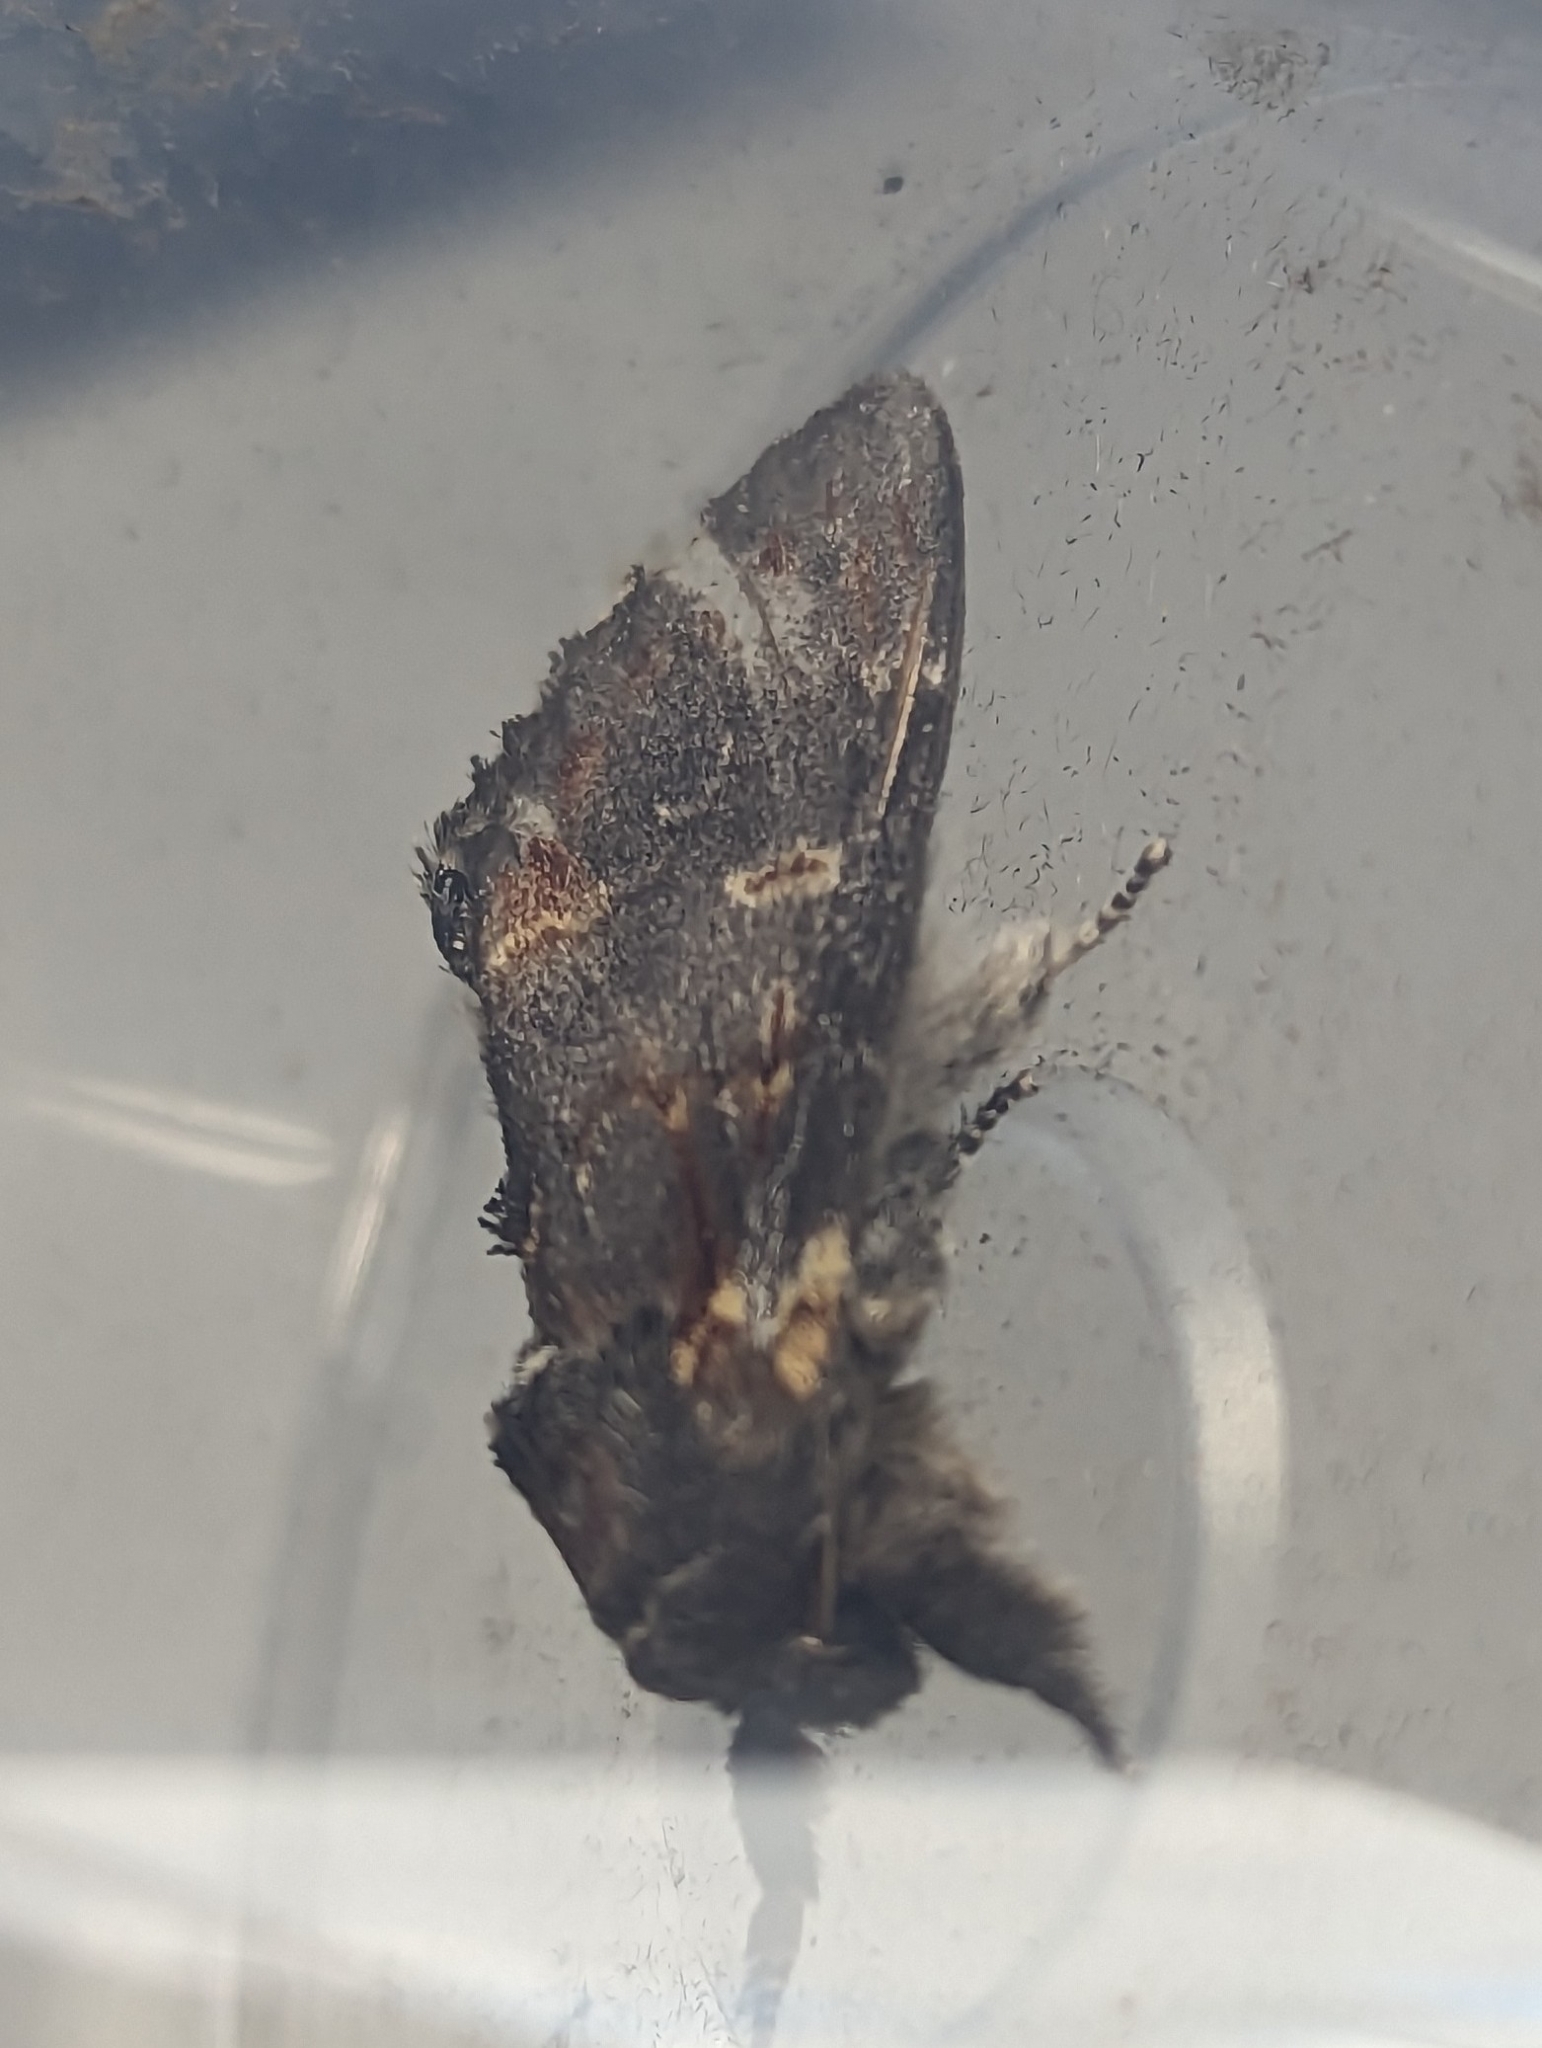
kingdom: Animalia
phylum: Arthropoda
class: Insecta
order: Lepidoptera
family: Notodontidae
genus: Notodonta
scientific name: Notodonta dromedarius
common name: Iron prominent
